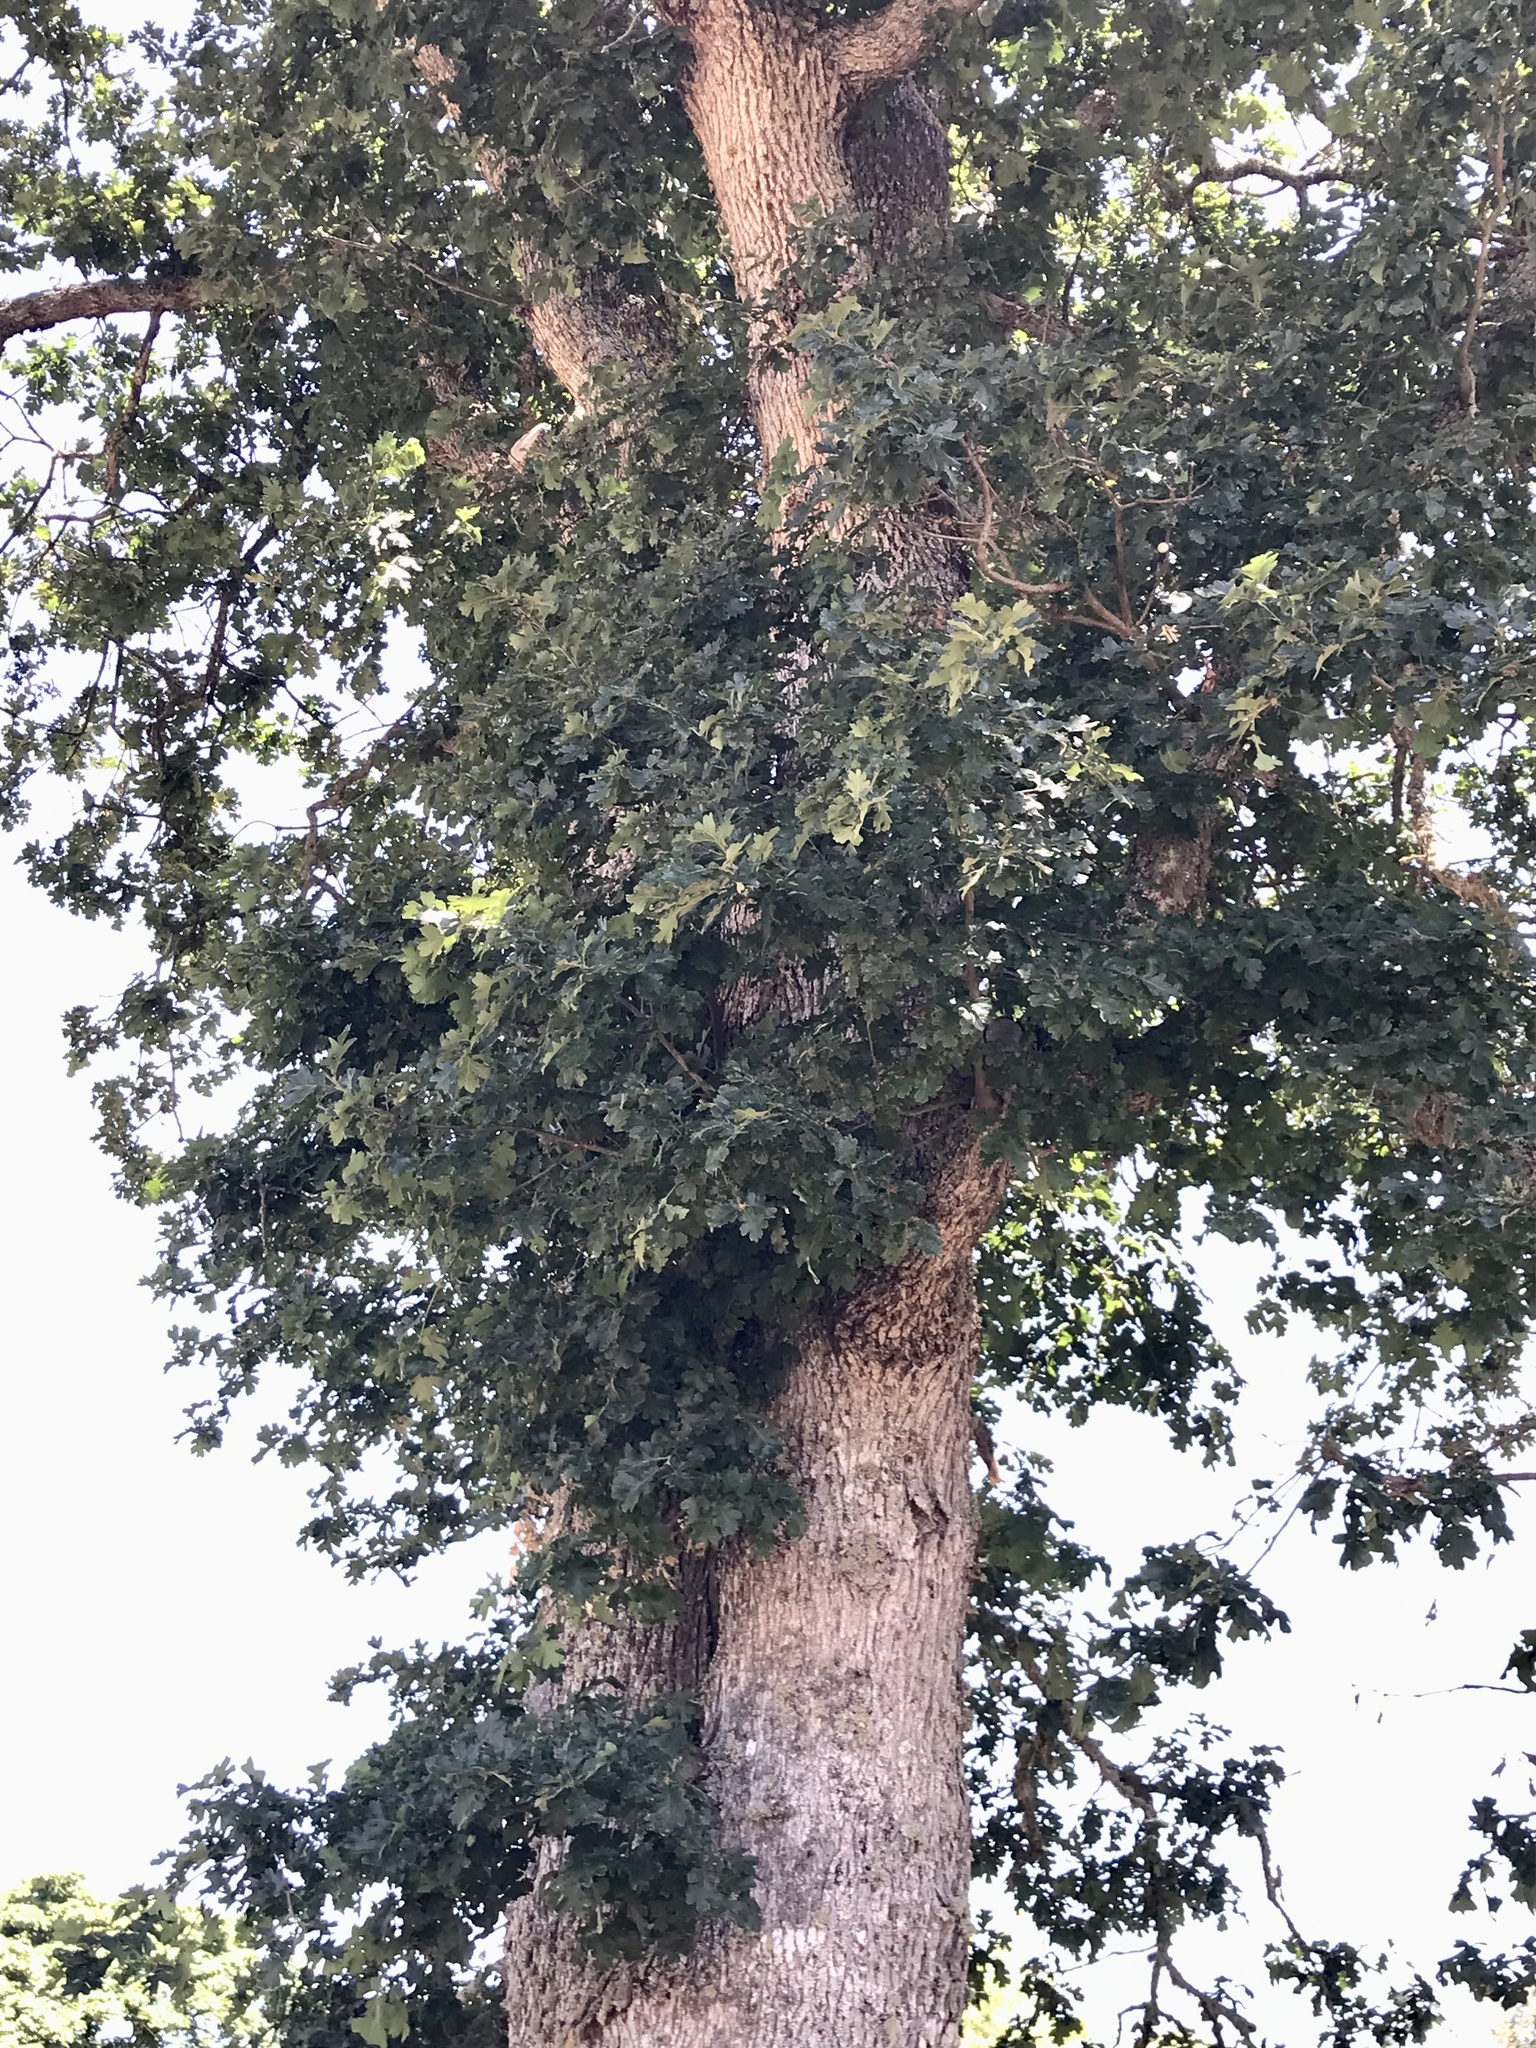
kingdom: Plantae
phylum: Tracheophyta
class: Magnoliopsida
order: Fagales
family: Fagaceae
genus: Quercus
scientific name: Quercus garryana
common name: Garry oak
